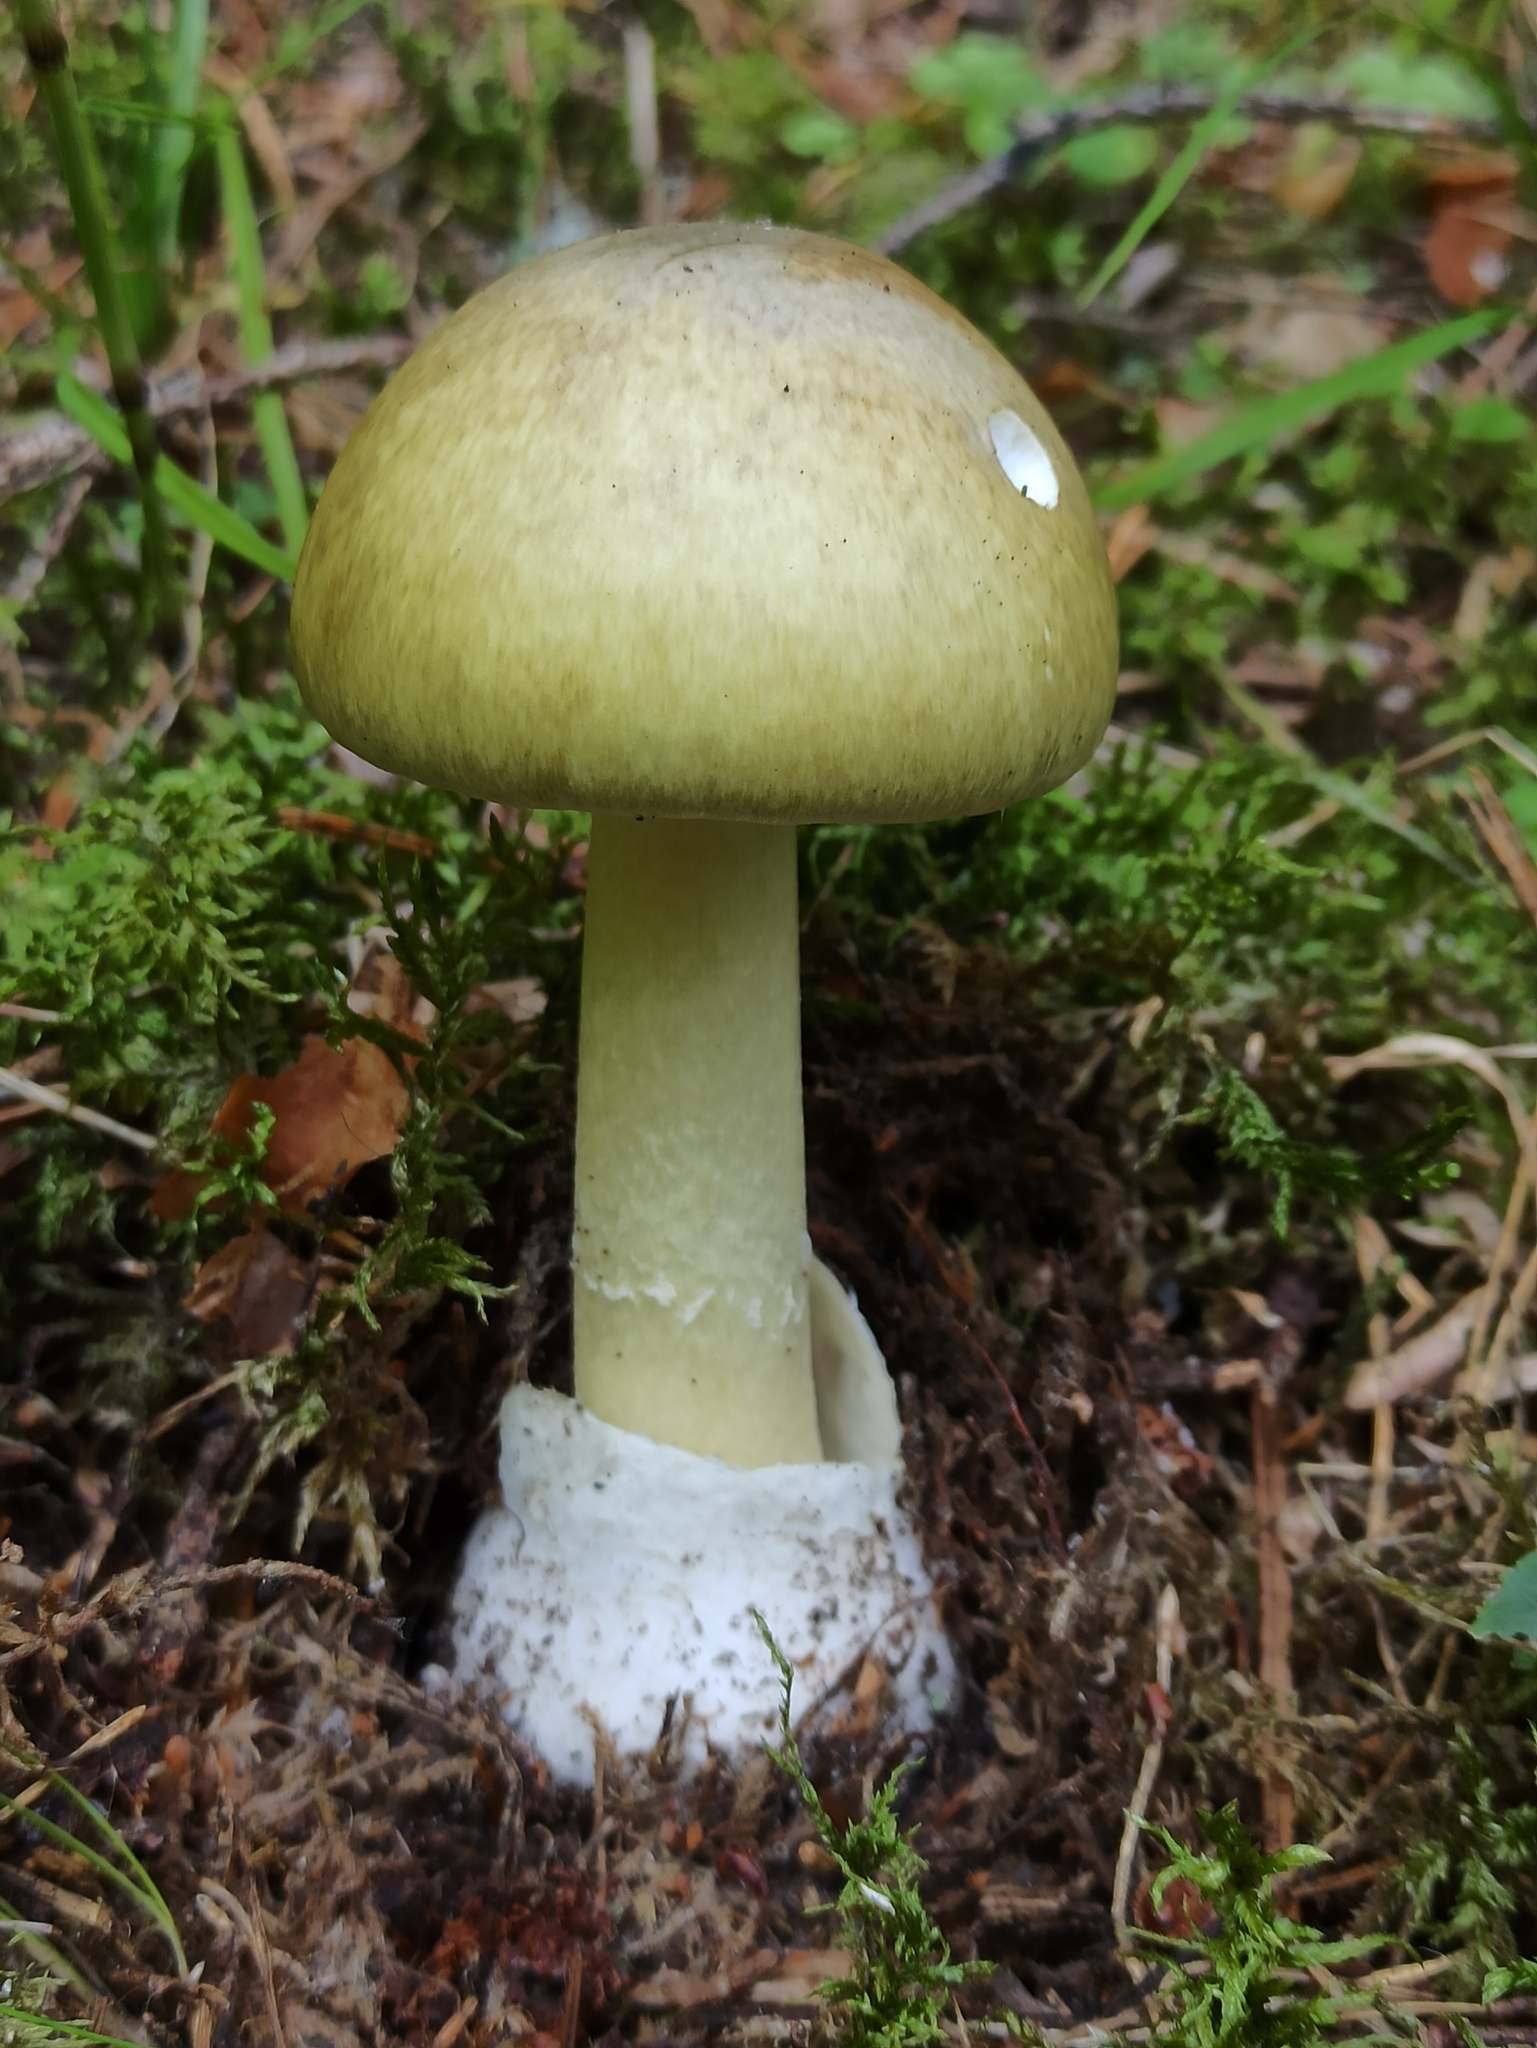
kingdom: Fungi
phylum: Basidiomycota
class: Agaricomycetes
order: Agaricales
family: Amanitaceae
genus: Amanita
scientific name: Amanita phalloides
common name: Death cap
